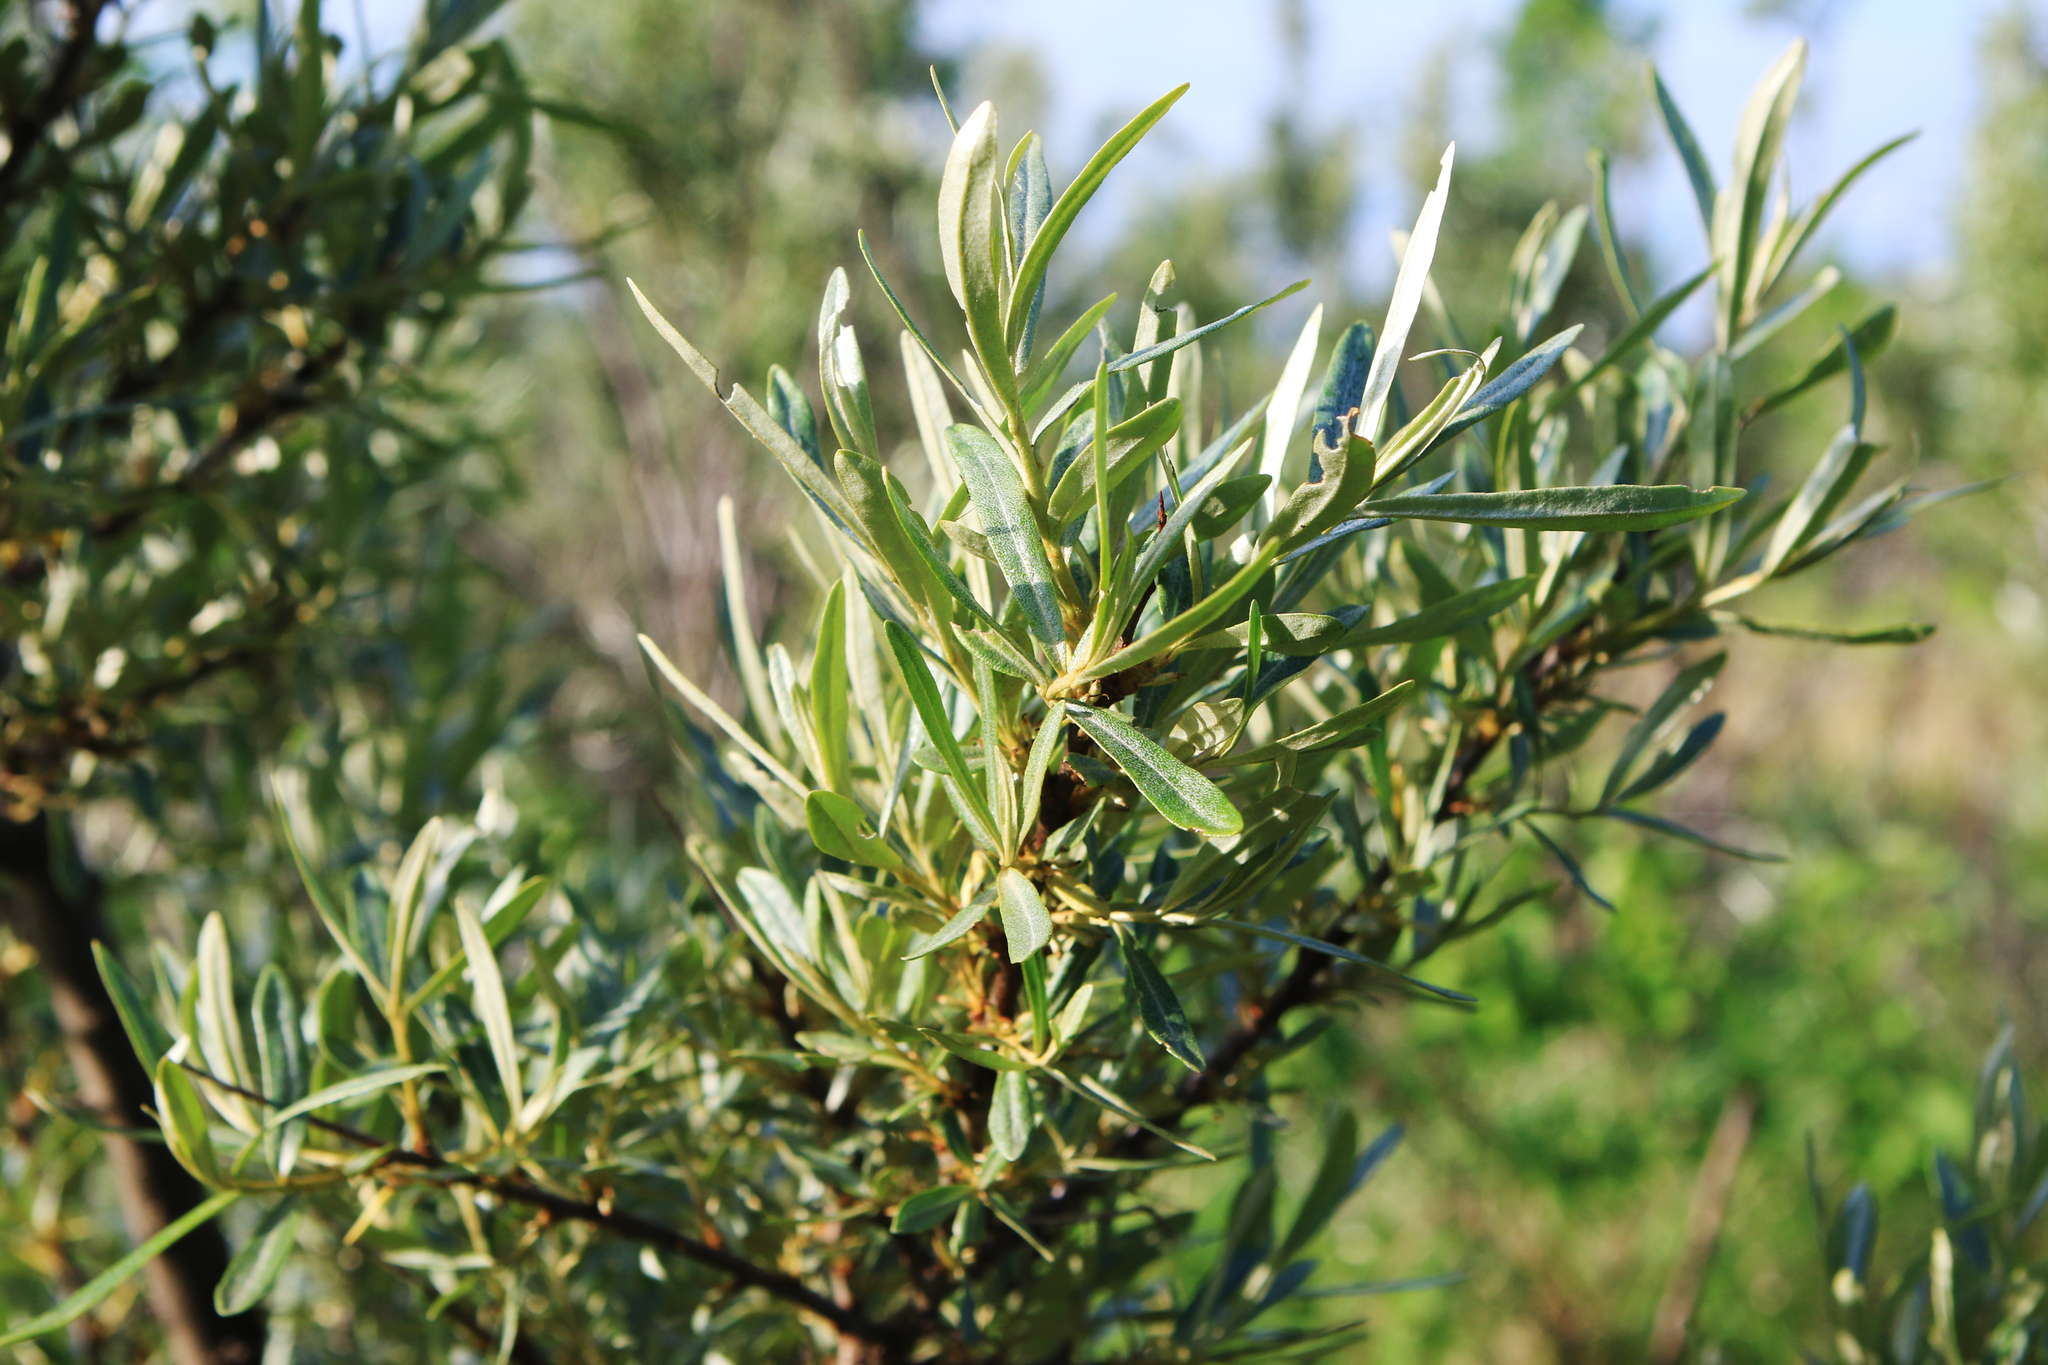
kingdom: Plantae
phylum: Tracheophyta
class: Magnoliopsida
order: Rosales
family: Elaeagnaceae
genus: Hippophae
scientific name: Hippophae rhamnoides
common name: Sea-buckthorn
